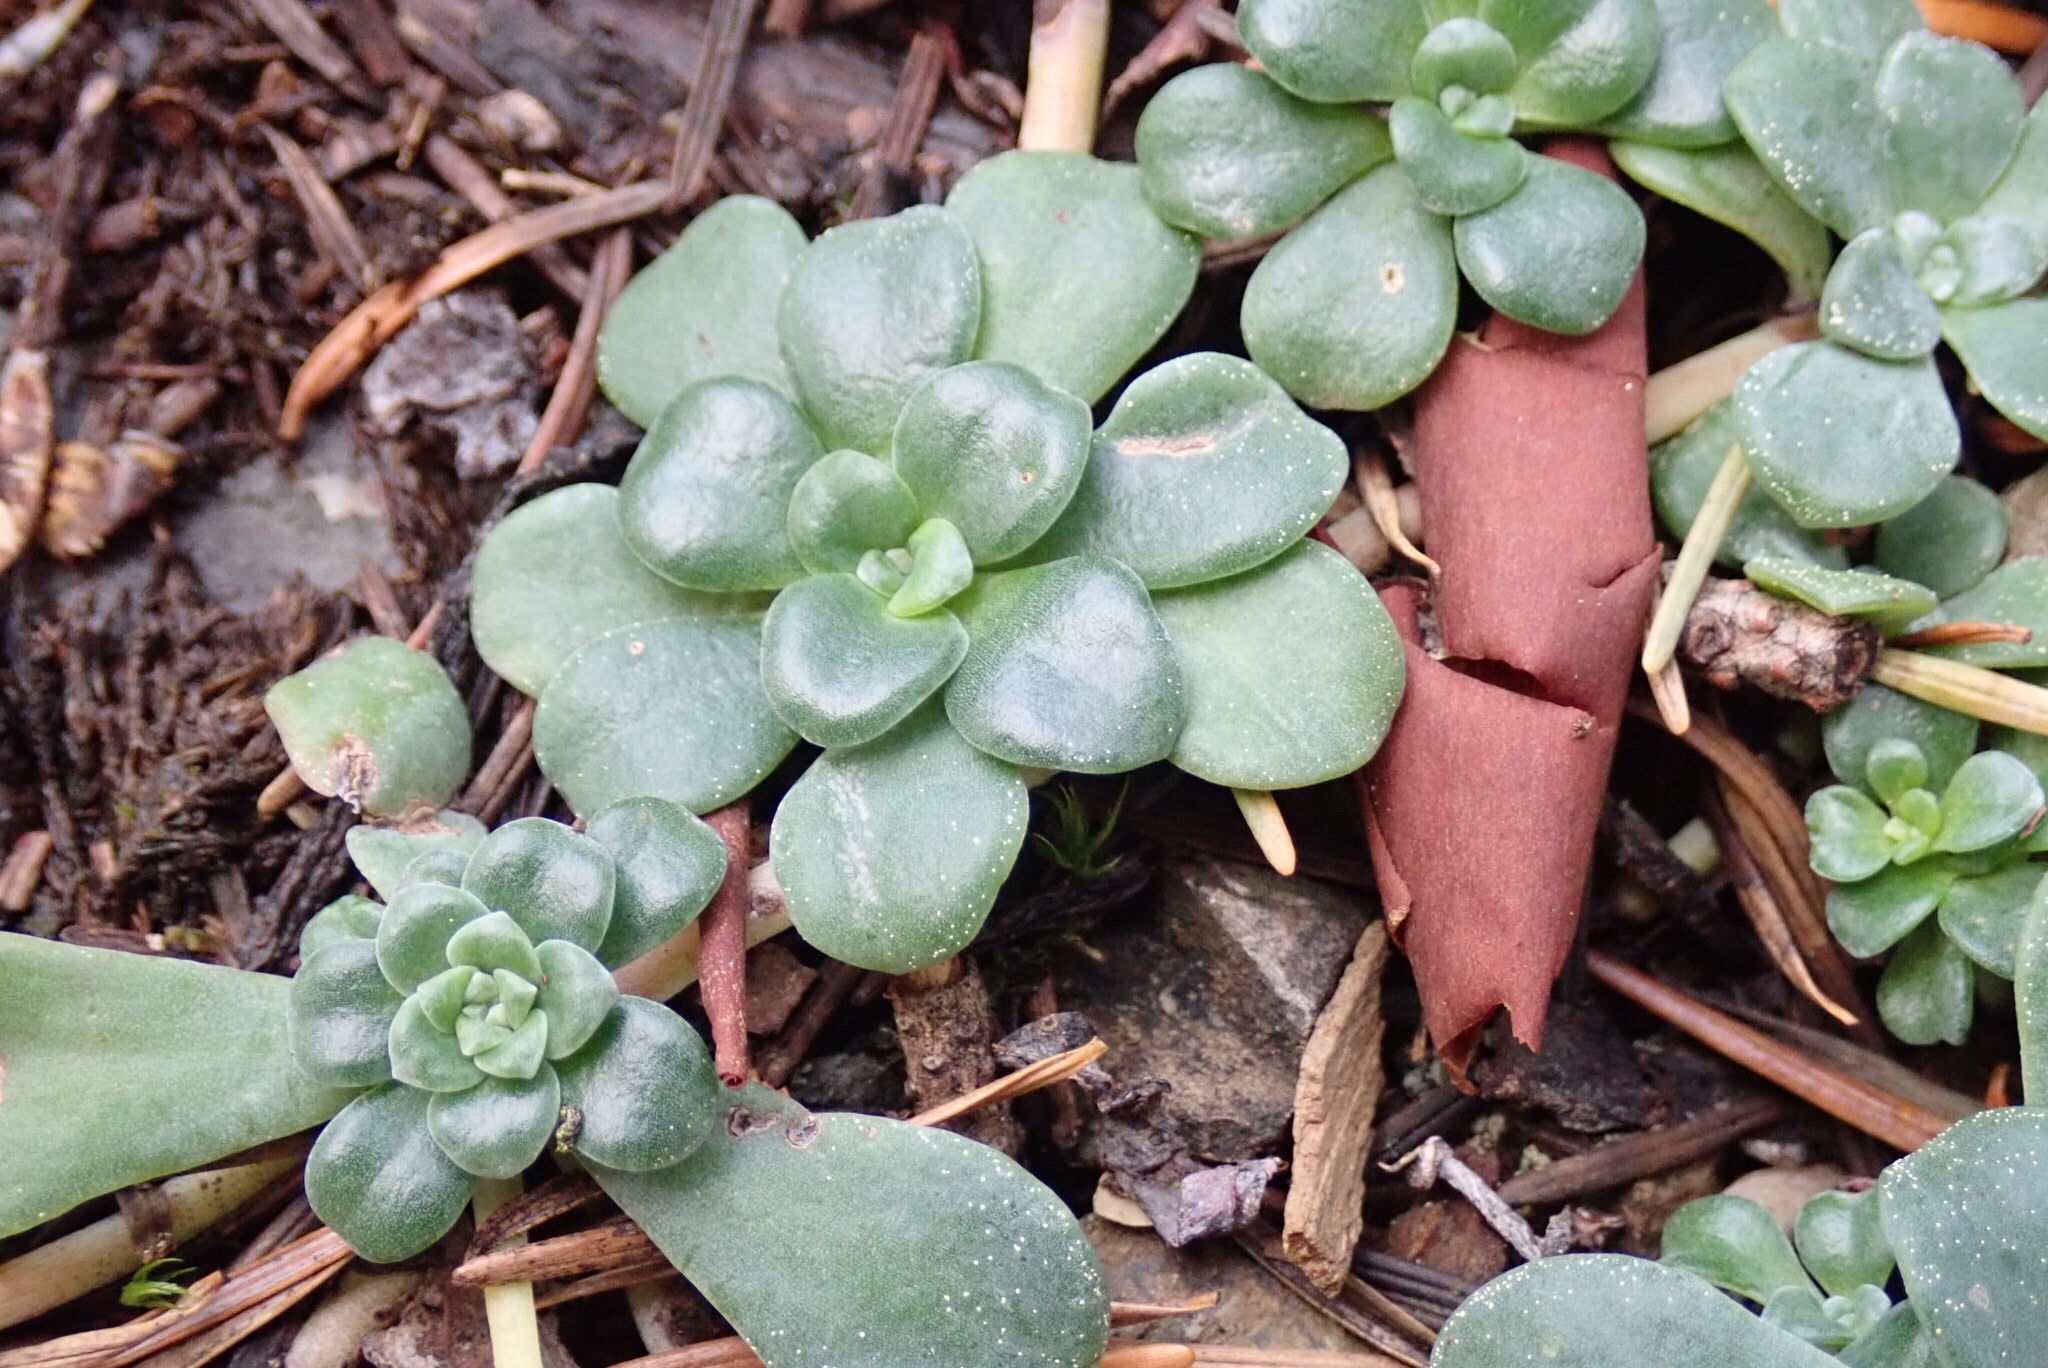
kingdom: Plantae
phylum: Tracheophyta
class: Magnoliopsida
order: Saxifragales
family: Crassulaceae
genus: Sedum
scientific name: Sedum spathulifolium
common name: Colorado stonecrop
